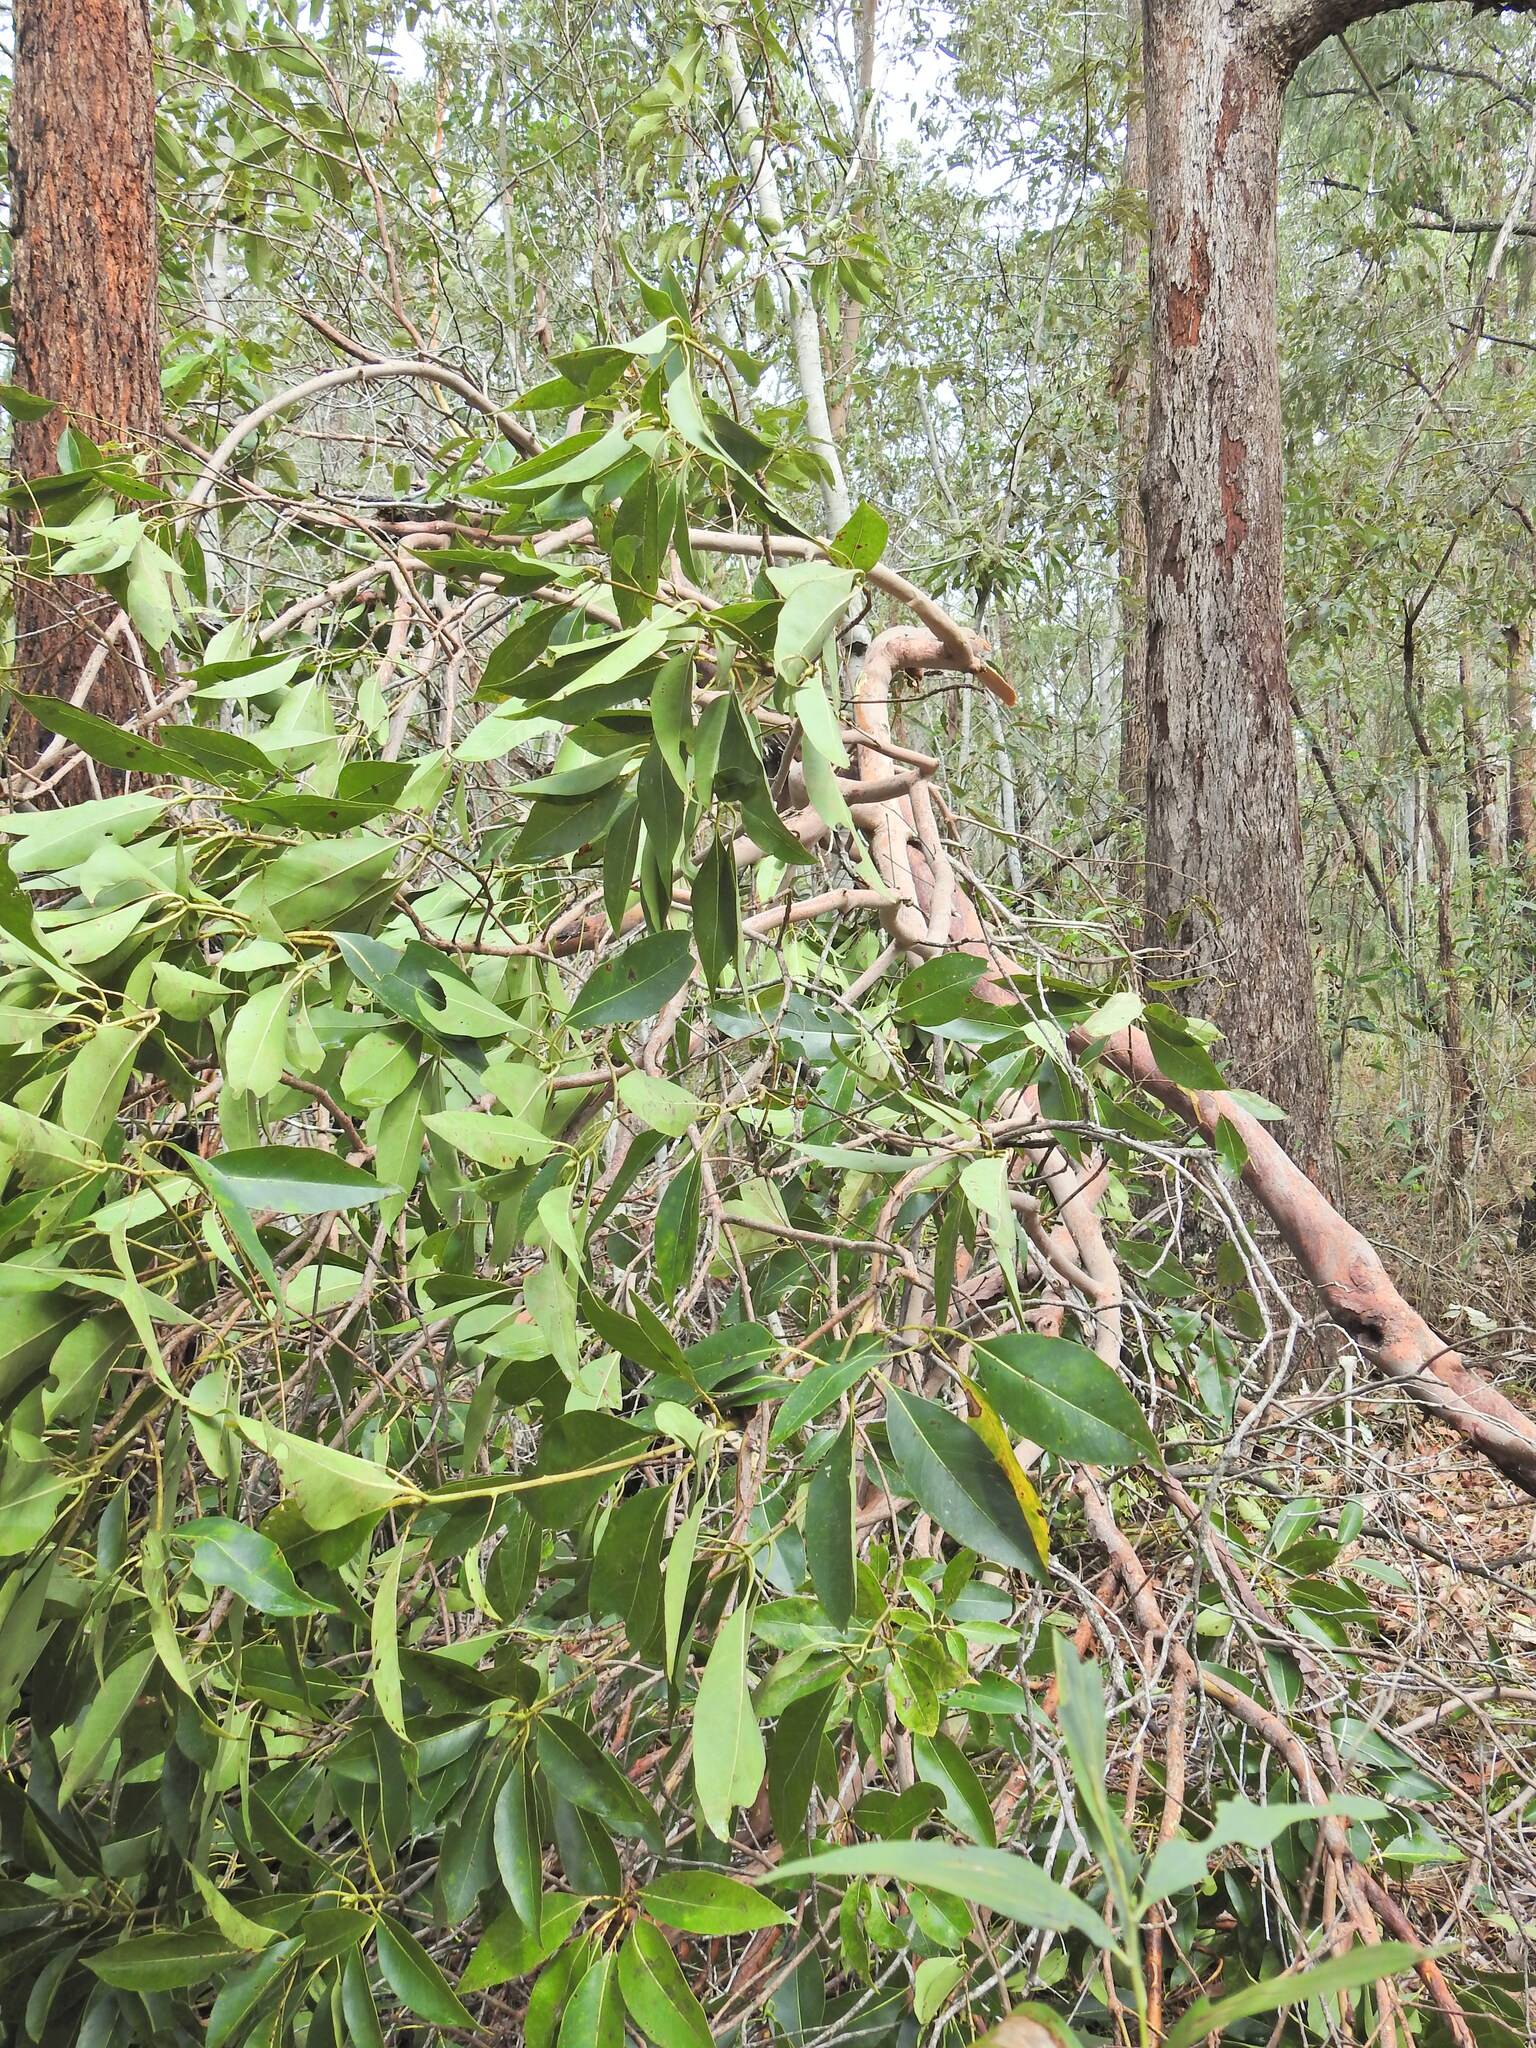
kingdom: Plantae
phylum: Tracheophyta
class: Magnoliopsida
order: Myrtales
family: Myrtaceae
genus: Lophostemon
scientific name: Lophostemon confertus
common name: Brisbane box
